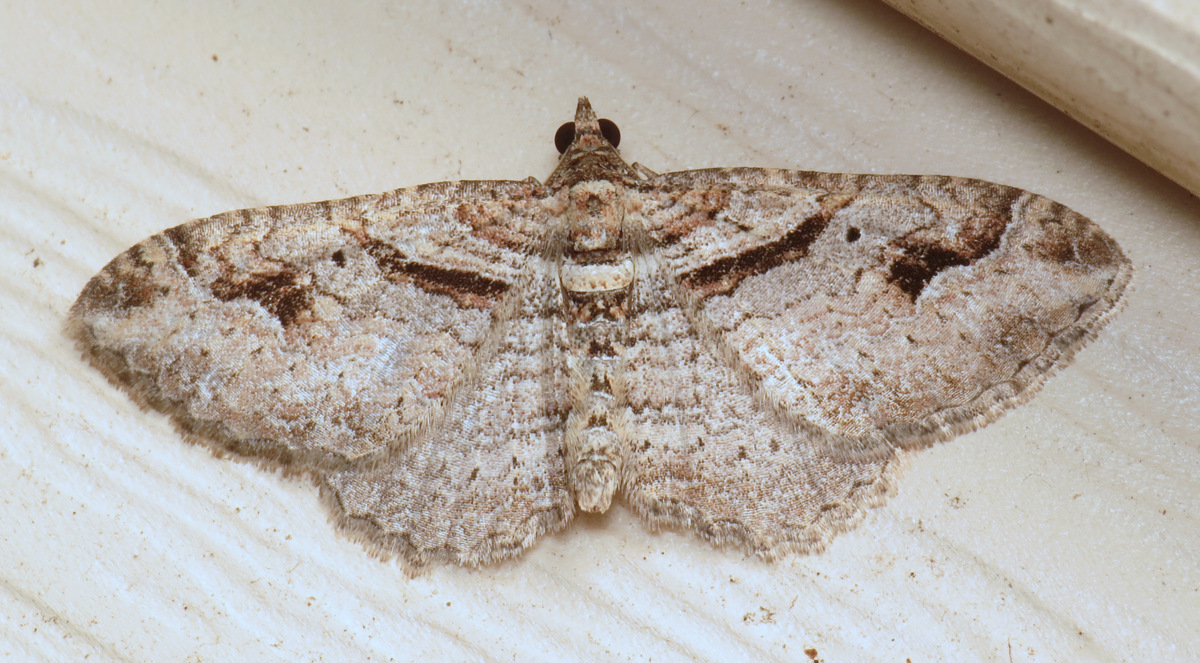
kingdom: Animalia
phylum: Arthropoda
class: Insecta
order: Lepidoptera
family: Geometridae
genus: Costaconvexa
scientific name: Costaconvexa centrostrigaria
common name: Bent-line carpet
